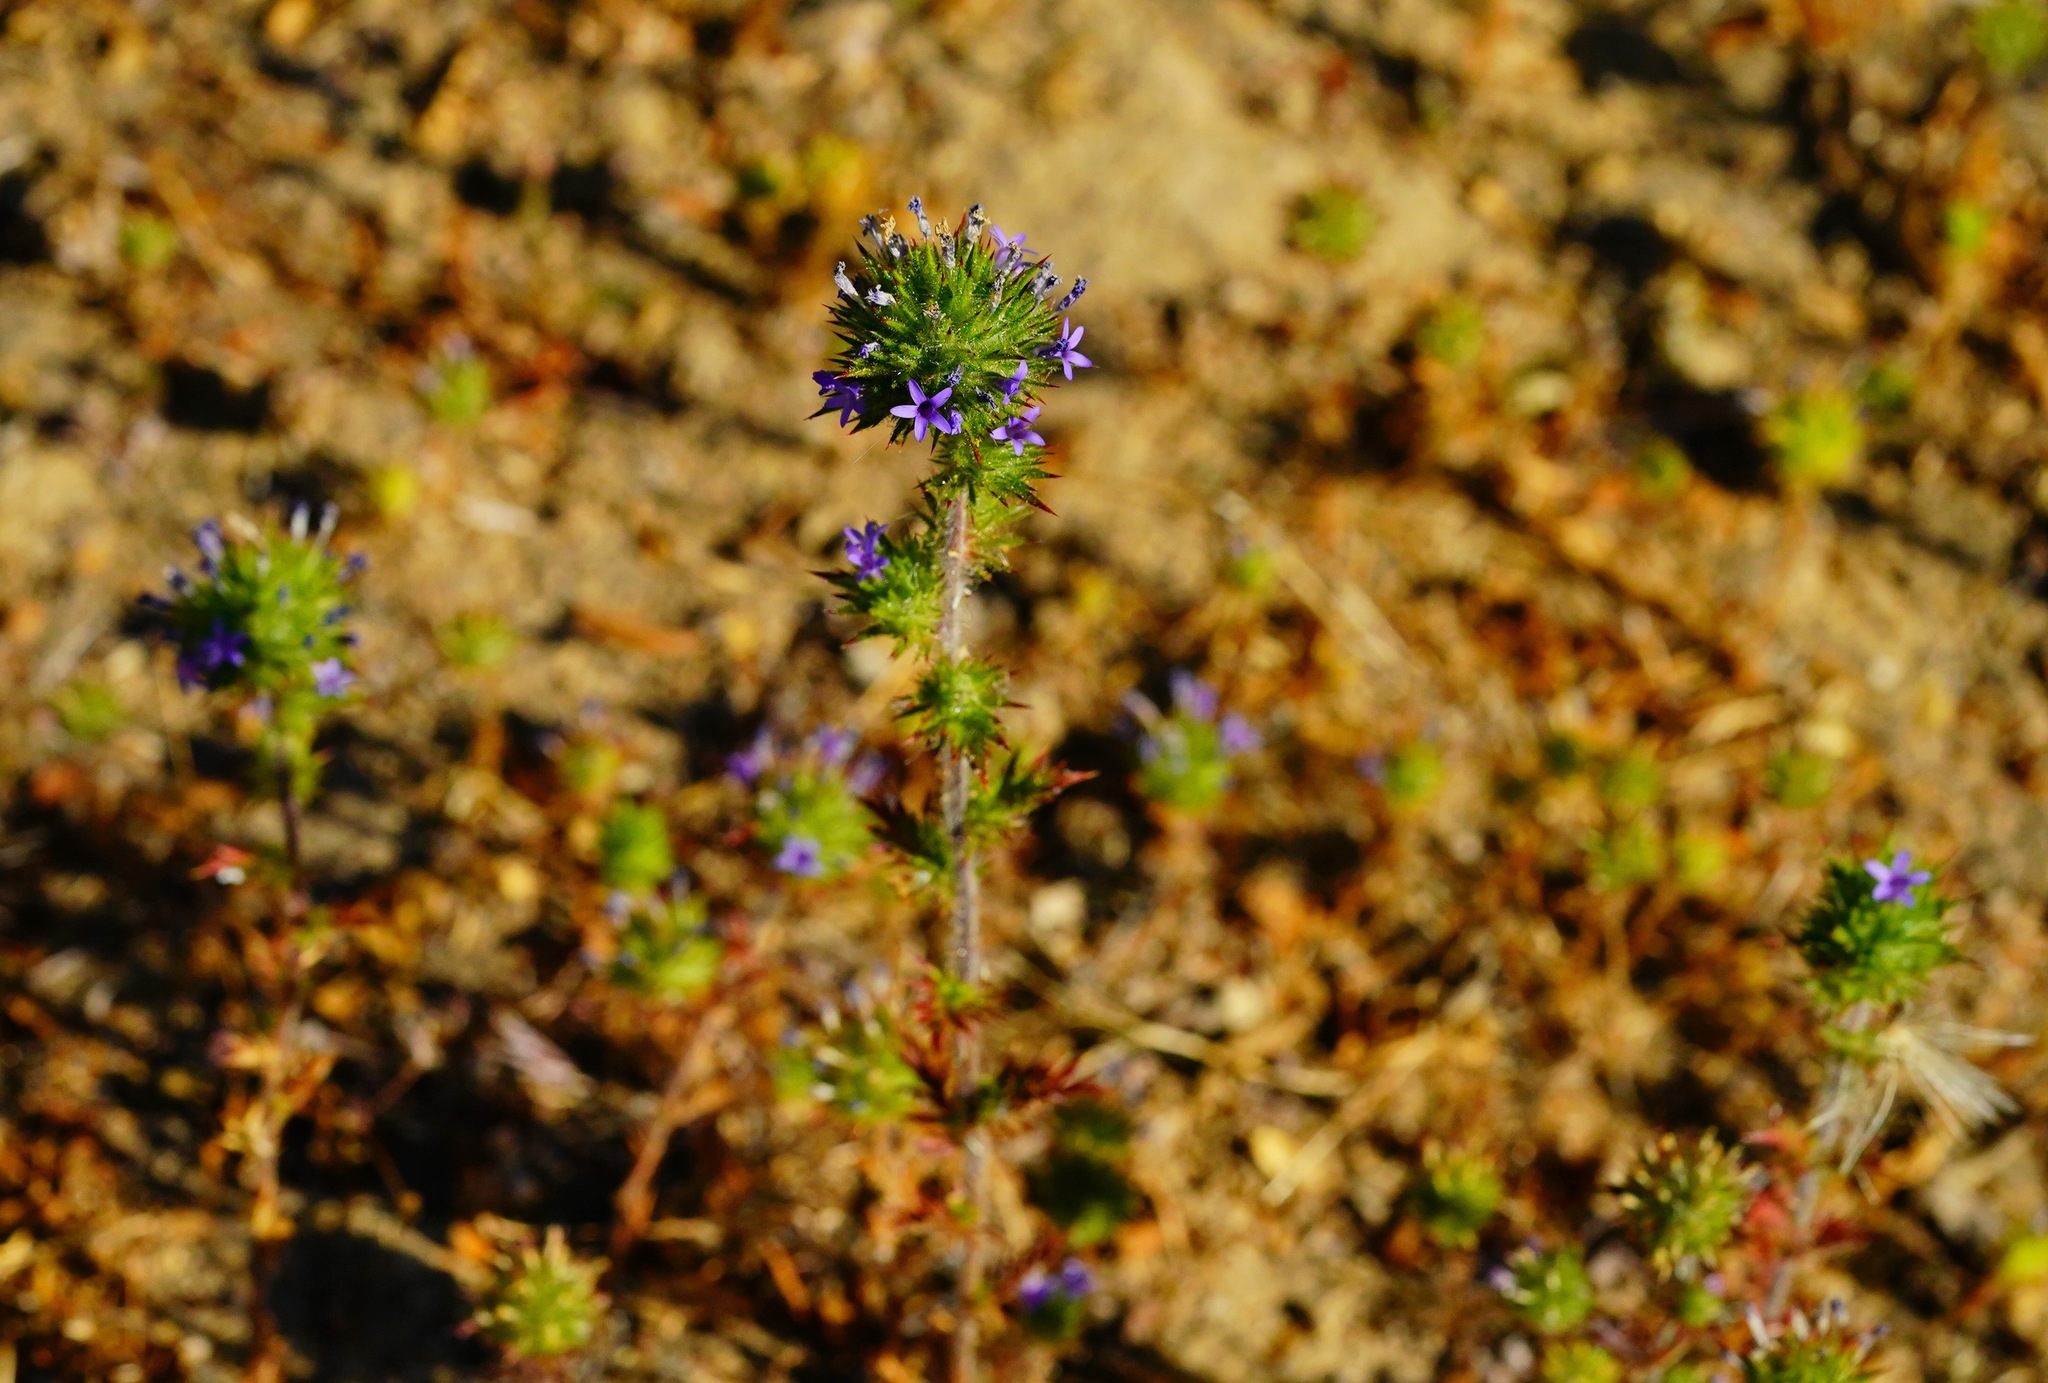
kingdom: Plantae
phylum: Tracheophyta
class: Magnoliopsida
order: Ericales
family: Polemoniaceae
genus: Navarretia
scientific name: Navarretia squarrosa
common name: Skunkweed
